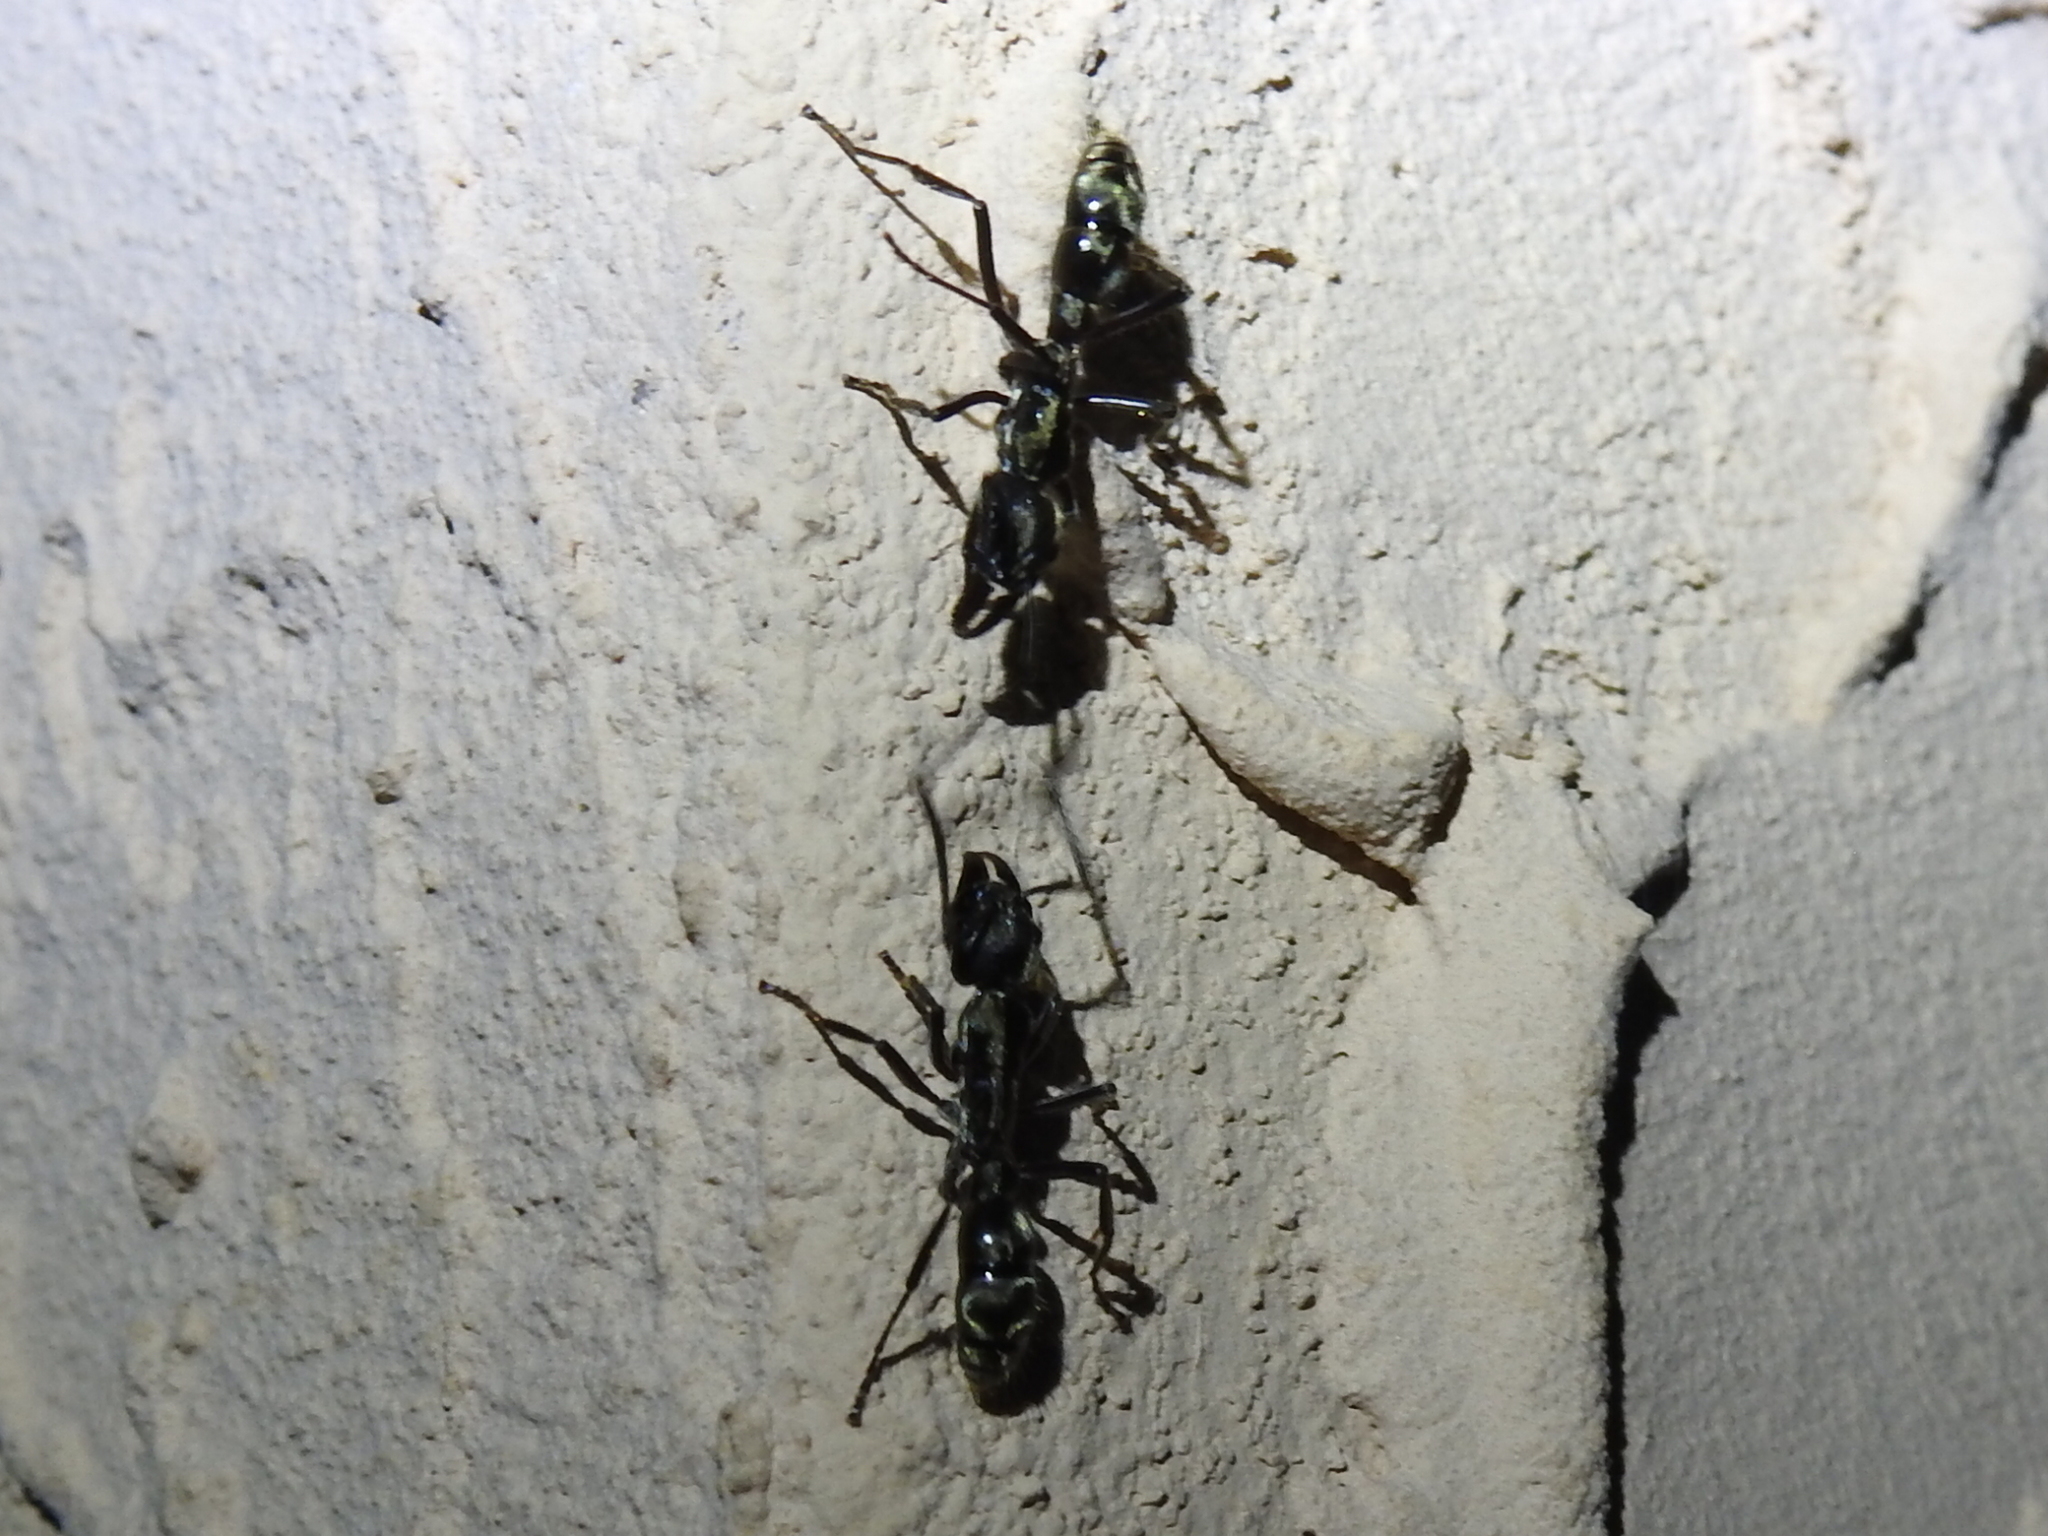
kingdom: Animalia
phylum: Arthropoda
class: Insecta
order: Hymenoptera
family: Formicidae
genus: Pachycondyla
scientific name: Pachycondyla villosa
